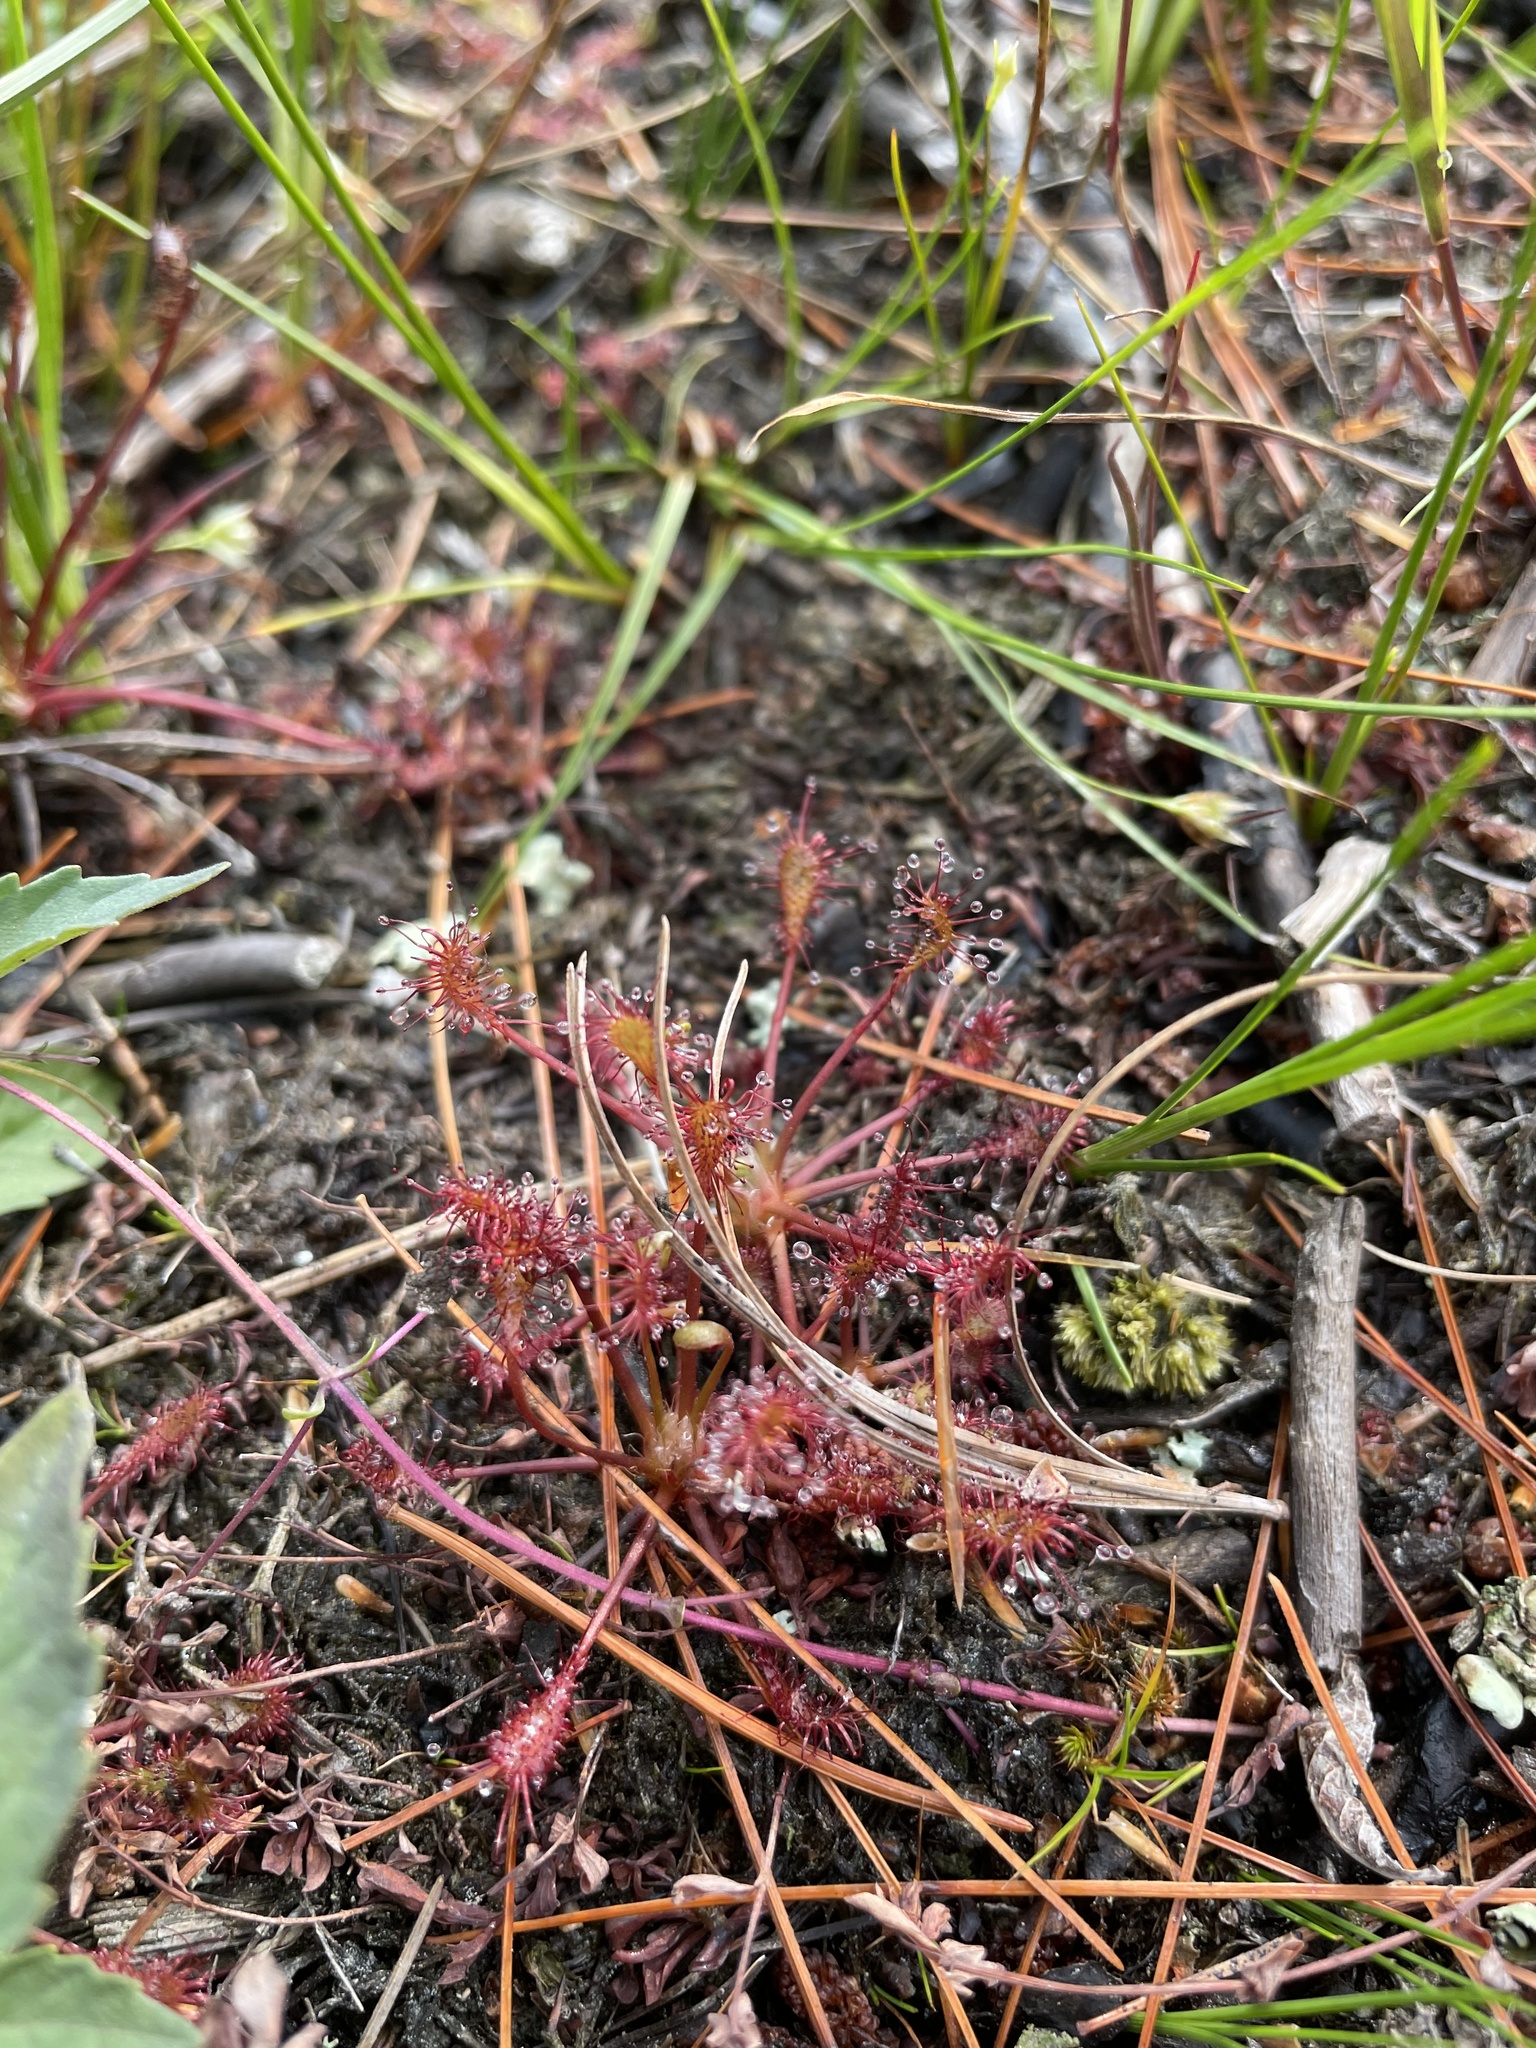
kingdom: Plantae
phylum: Tracheophyta
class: Magnoliopsida
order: Caryophyllales
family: Droseraceae
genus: Drosera
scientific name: Drosera intermedia
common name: Oblong-leaved sundew
